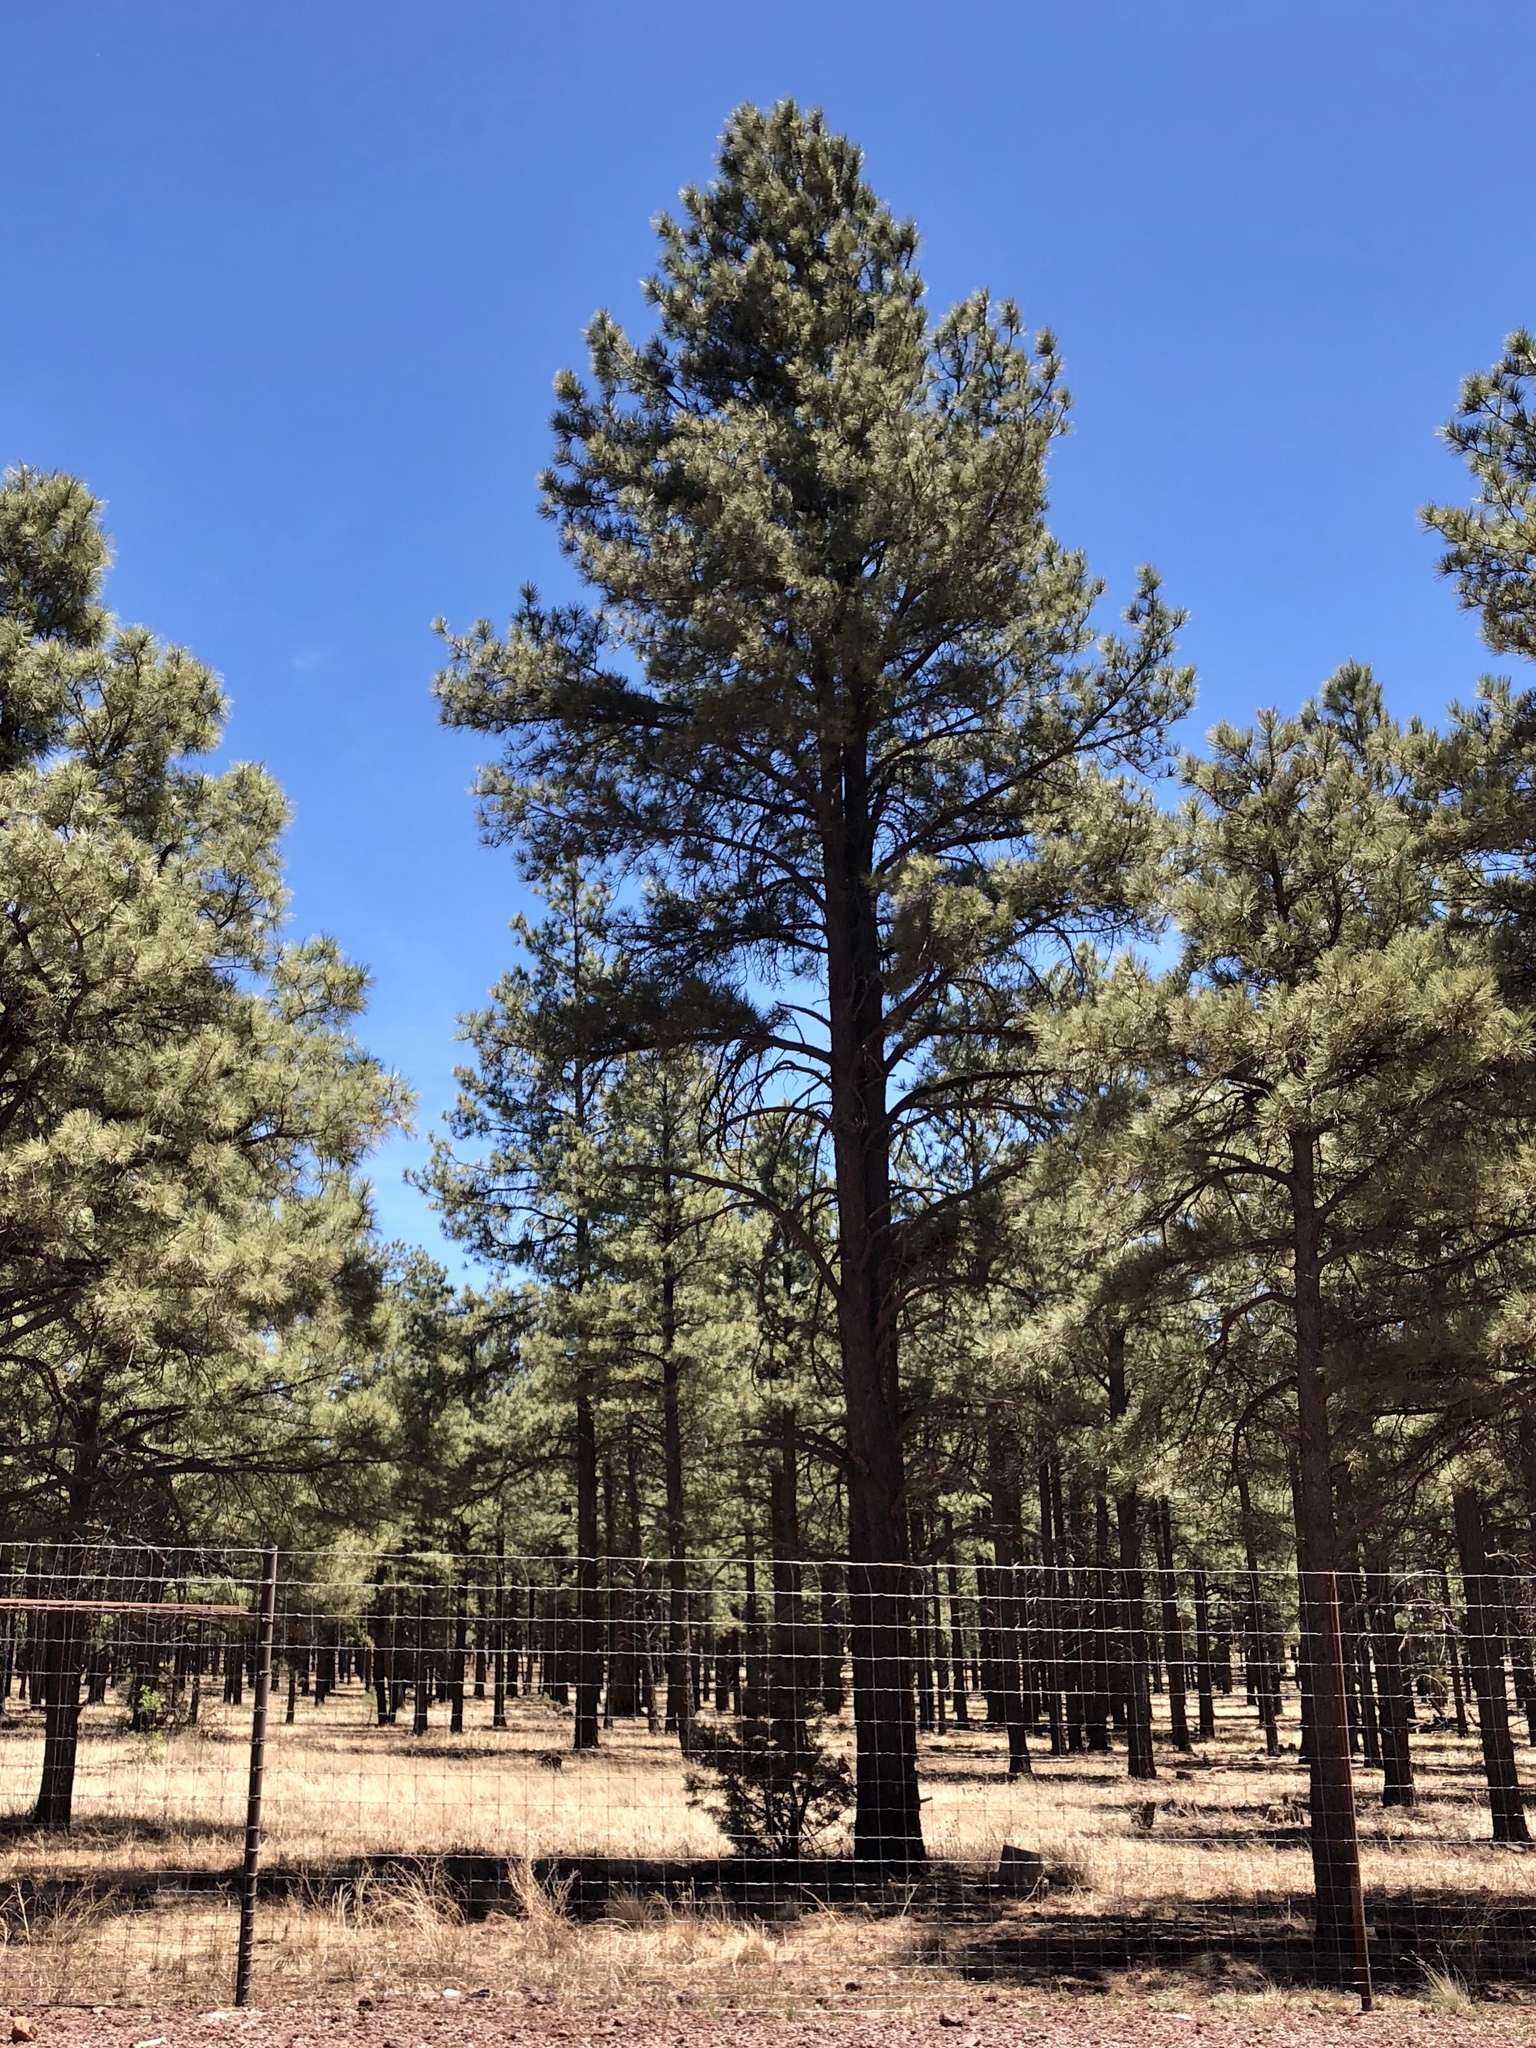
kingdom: Plantae
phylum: Tracheophyta
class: Pinopsida
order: Pinales
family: Pinaceae
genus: Pinus
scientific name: Pinus ponderosa
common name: Western yellow-pine
